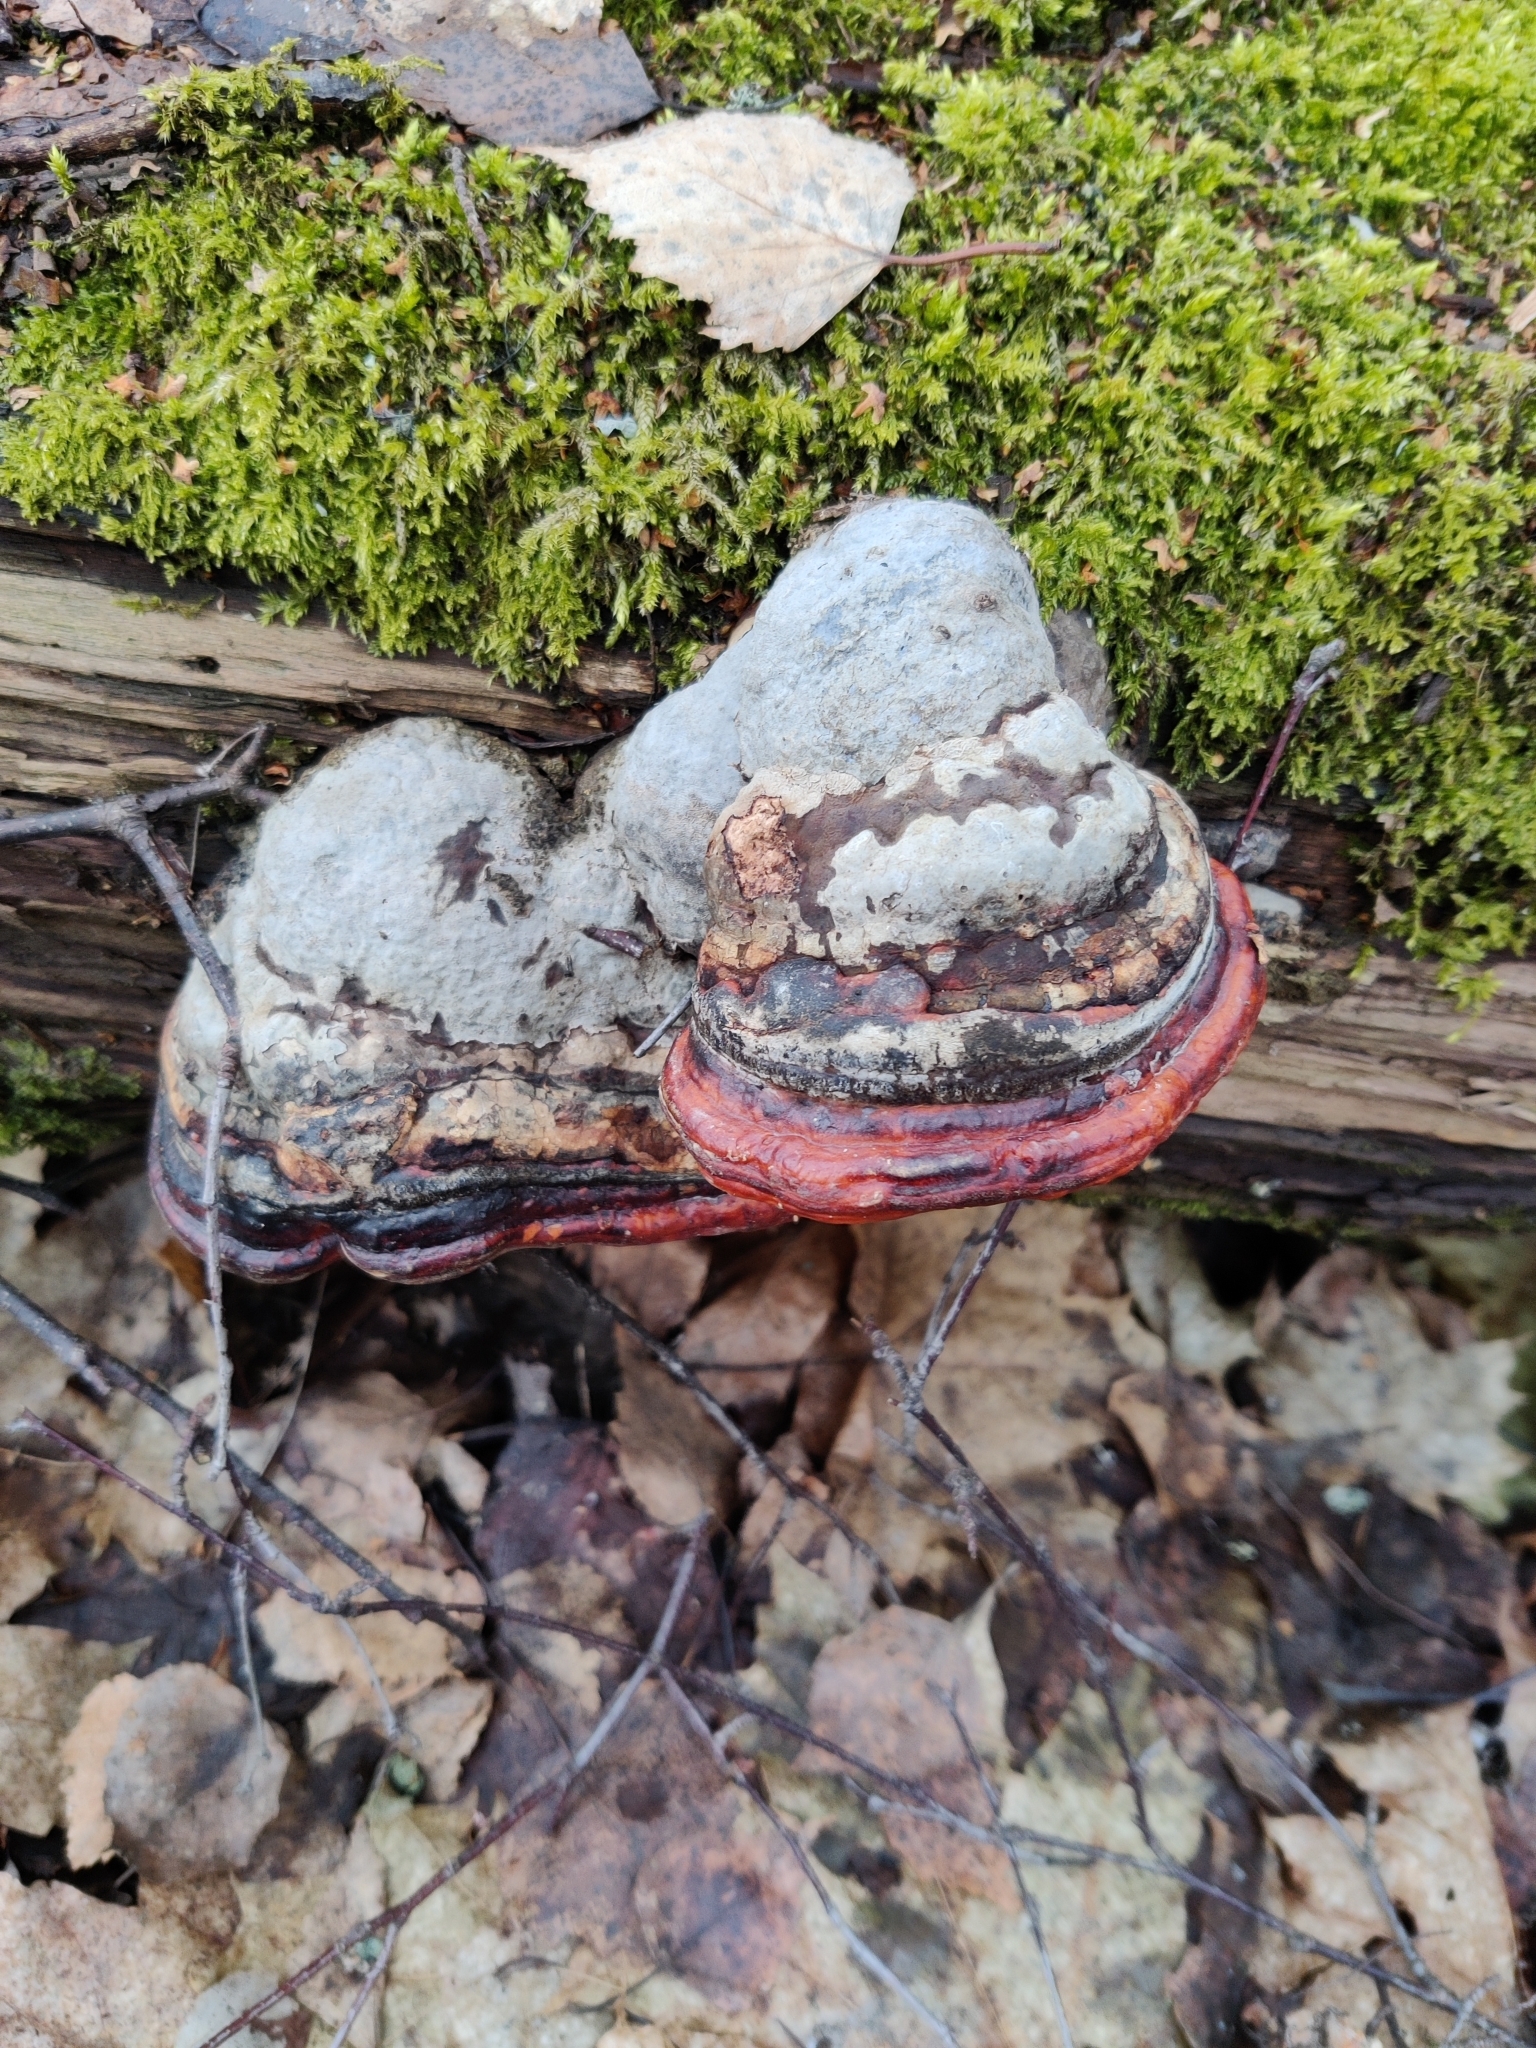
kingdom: Fungi
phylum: Basidiomycota
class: Agaricomycetes
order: Polyporales
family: Fomitopsidaceae
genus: Fomitopsis
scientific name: Fomitopsis pinicola
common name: Red-belted bracket
